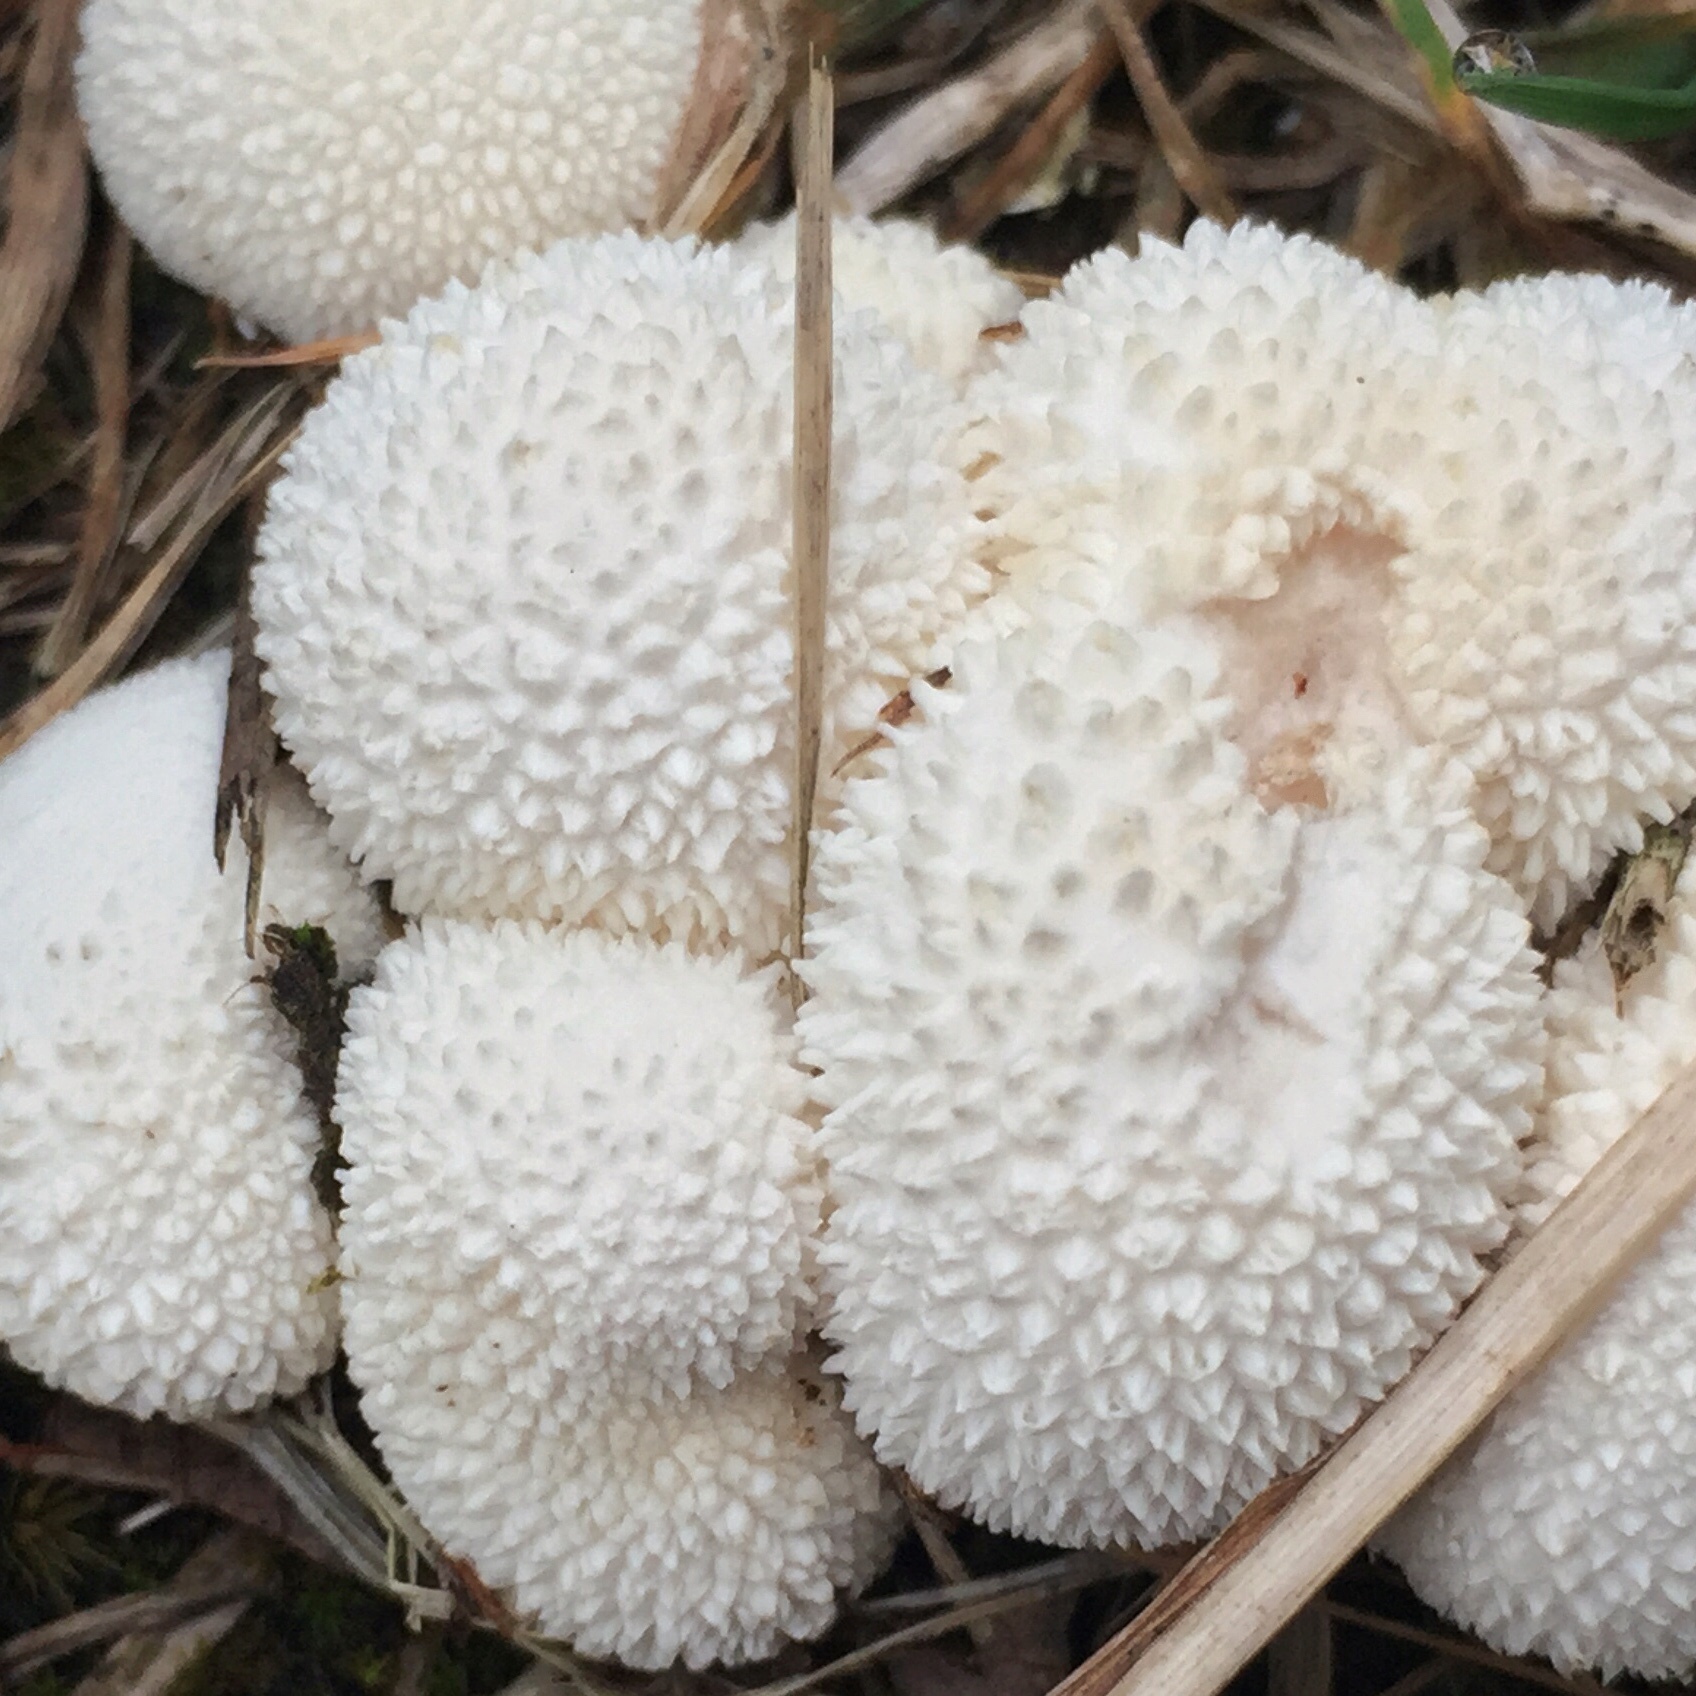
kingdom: Fungi
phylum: Basidiomycota
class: Agaricomycetes
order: Agaricales
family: Lycoperdaceae
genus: Lycoperdon
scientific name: Lycoperdon curtisii
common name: Curtis's puffball
